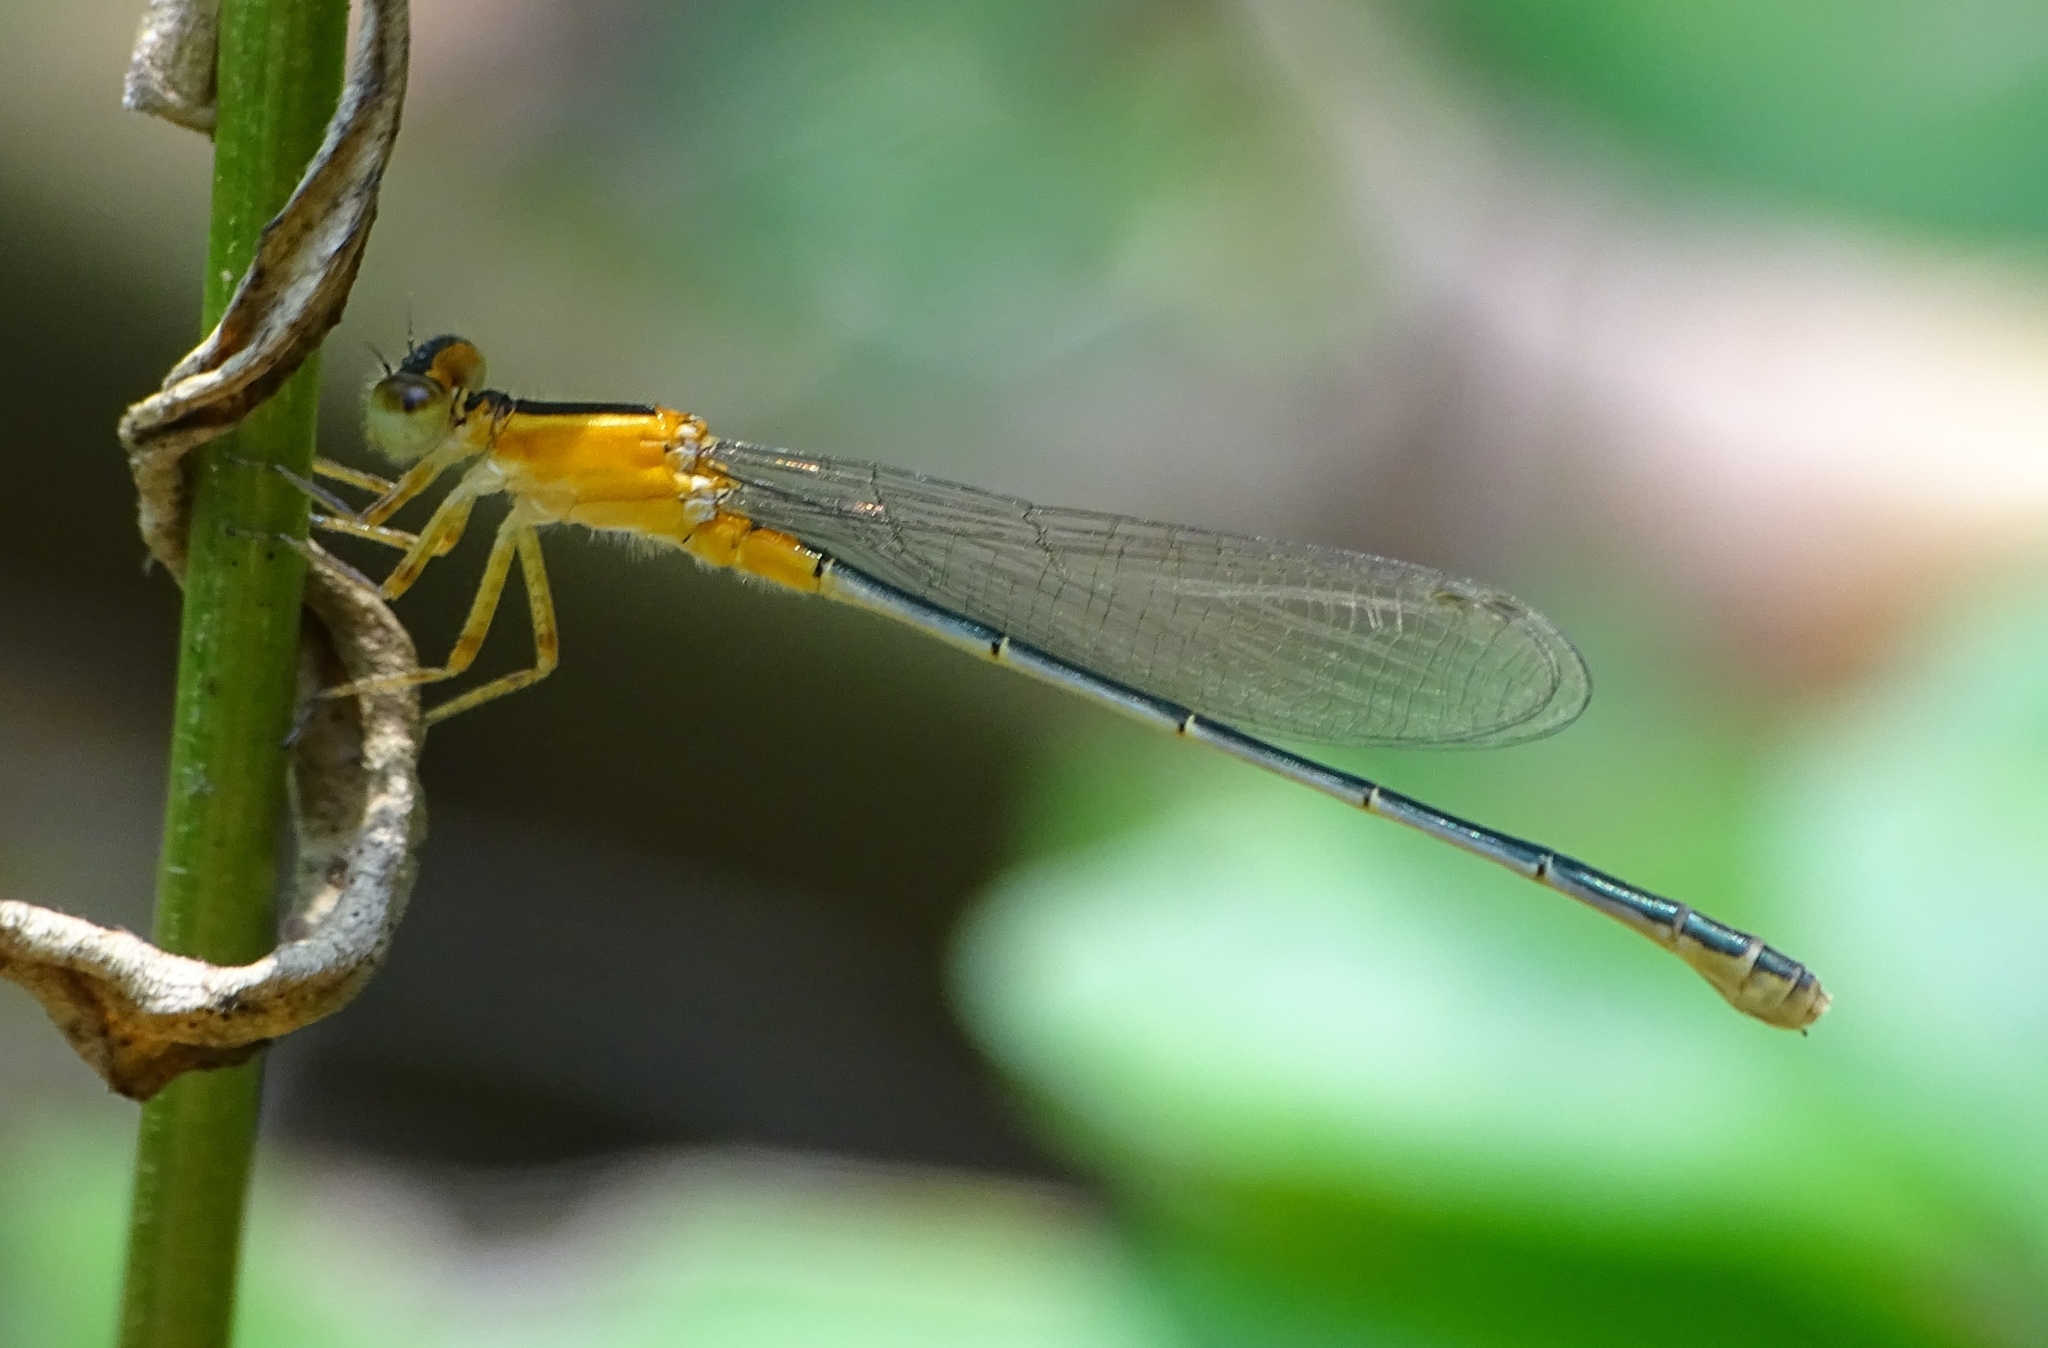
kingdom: Animalia
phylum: Arthropoda
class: Insecta
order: Odonata
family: Coenagrionidae
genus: Ischnura
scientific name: Ischnura senegalensis
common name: Tropical bluetail
